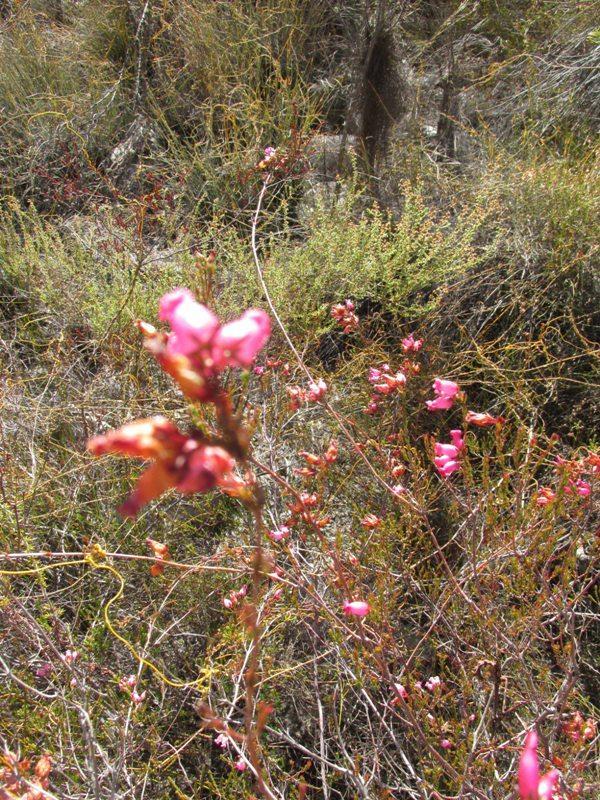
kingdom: Plantae
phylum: Tracheophyta
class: Magnoliopsida
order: Ericales
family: Ericaceae
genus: Erica
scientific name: Erica daphniflora
